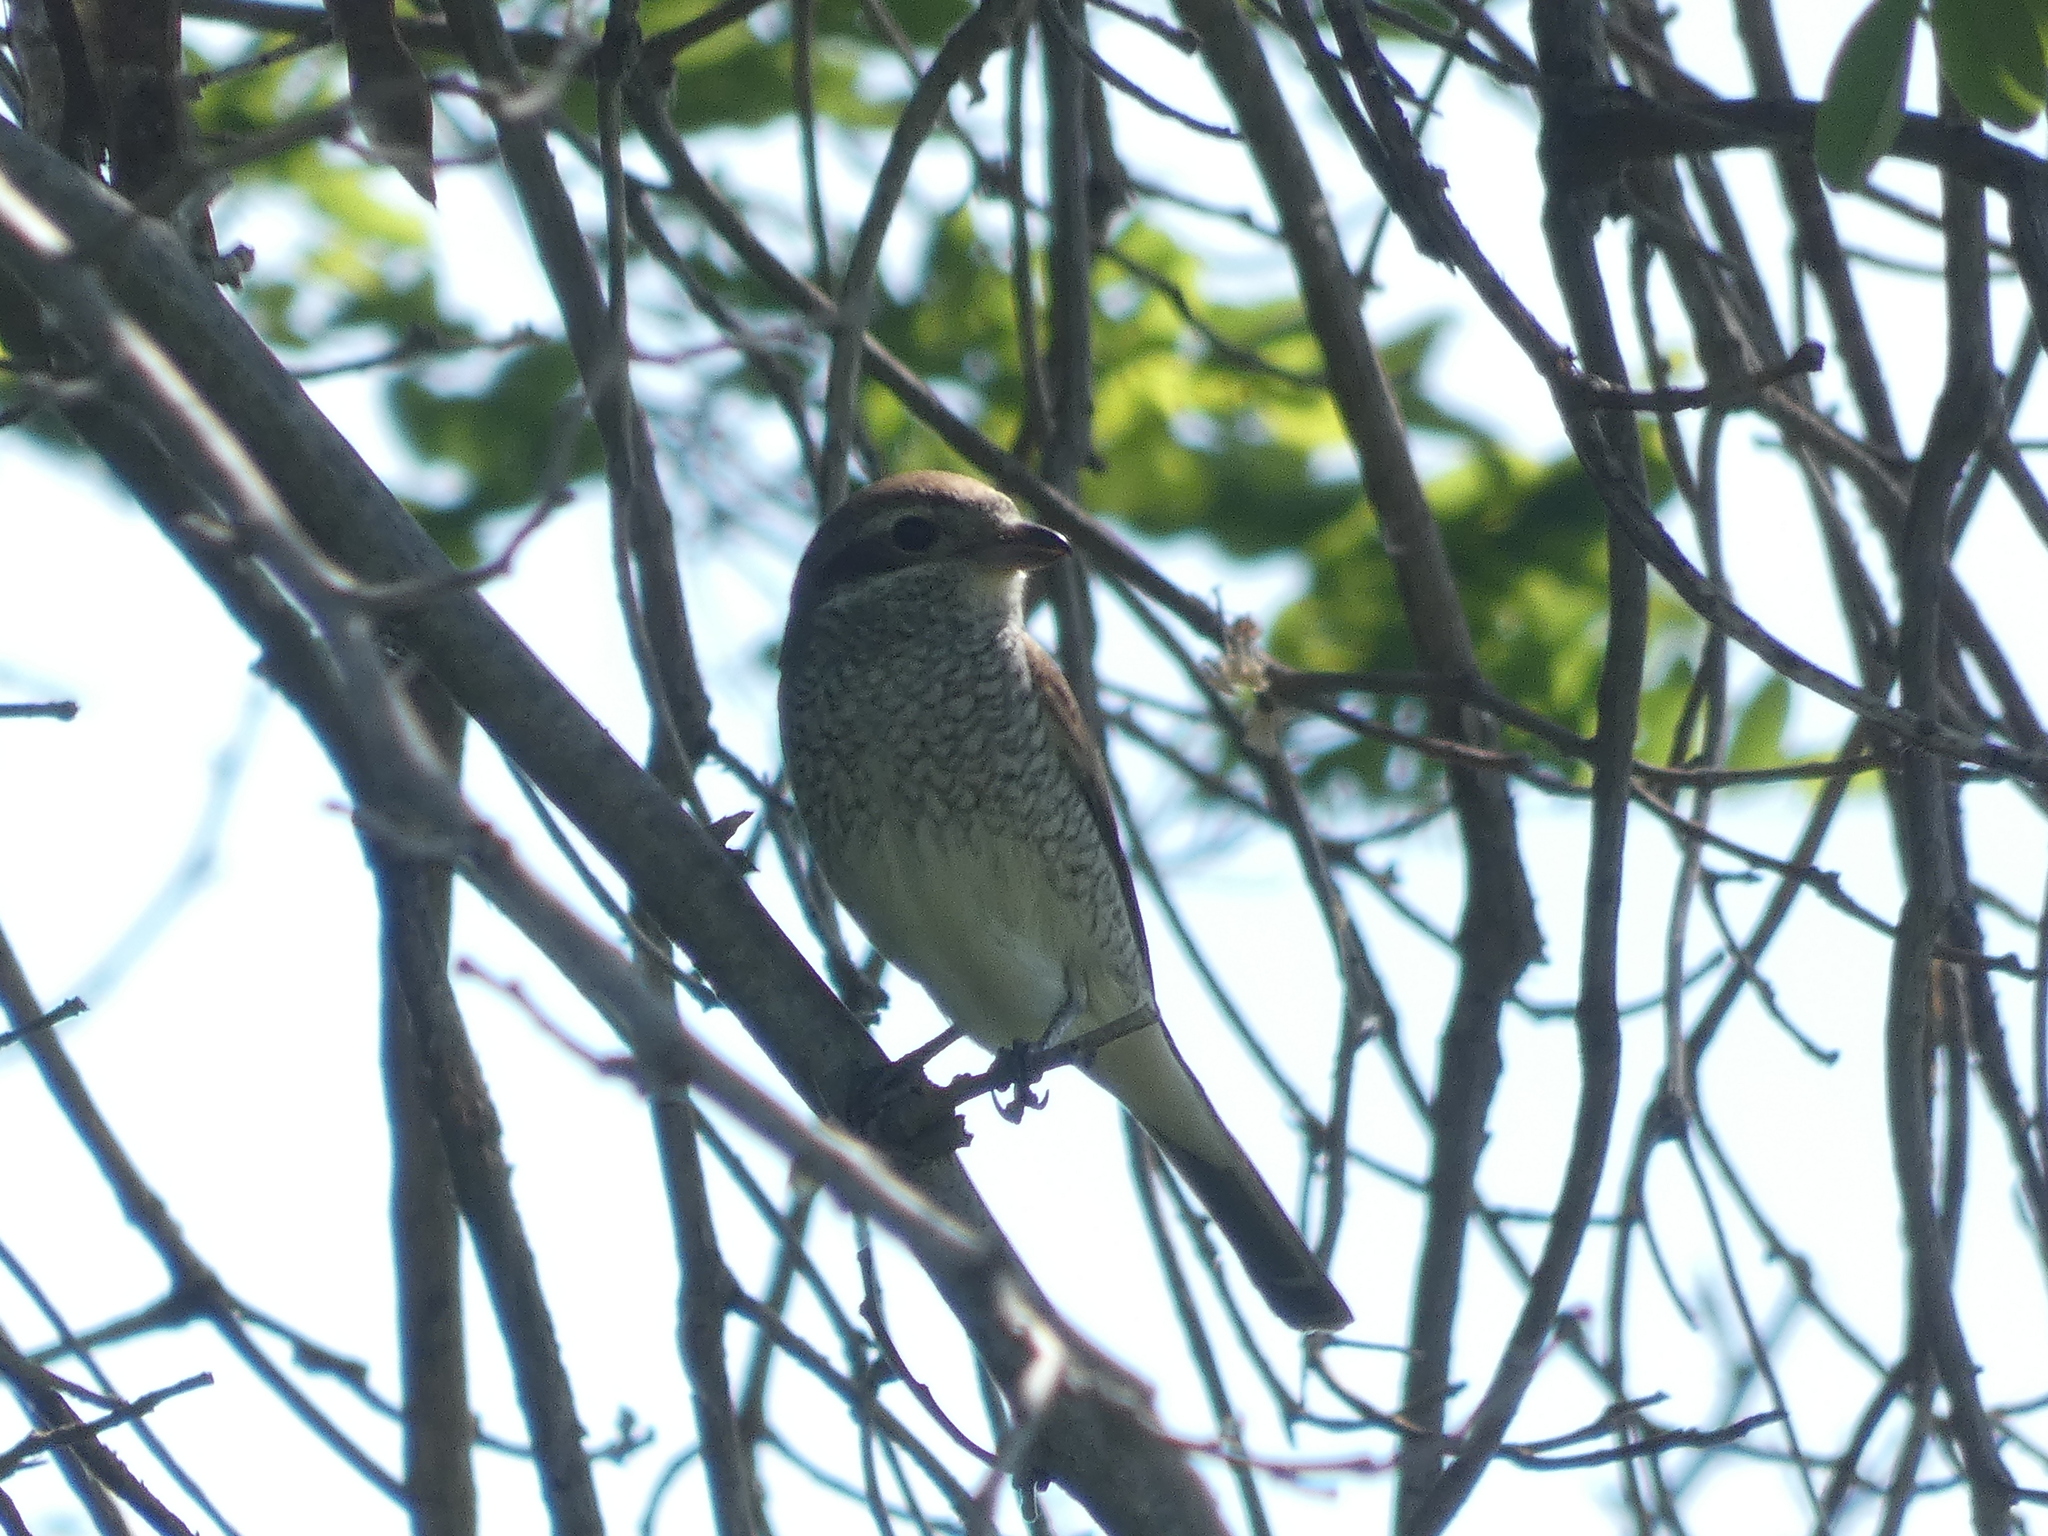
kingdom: Animalia
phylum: Chordata
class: Aves
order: Passeriformes
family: Laniidae
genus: Lanius
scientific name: Lanius collurio
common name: Red-backed shrike
